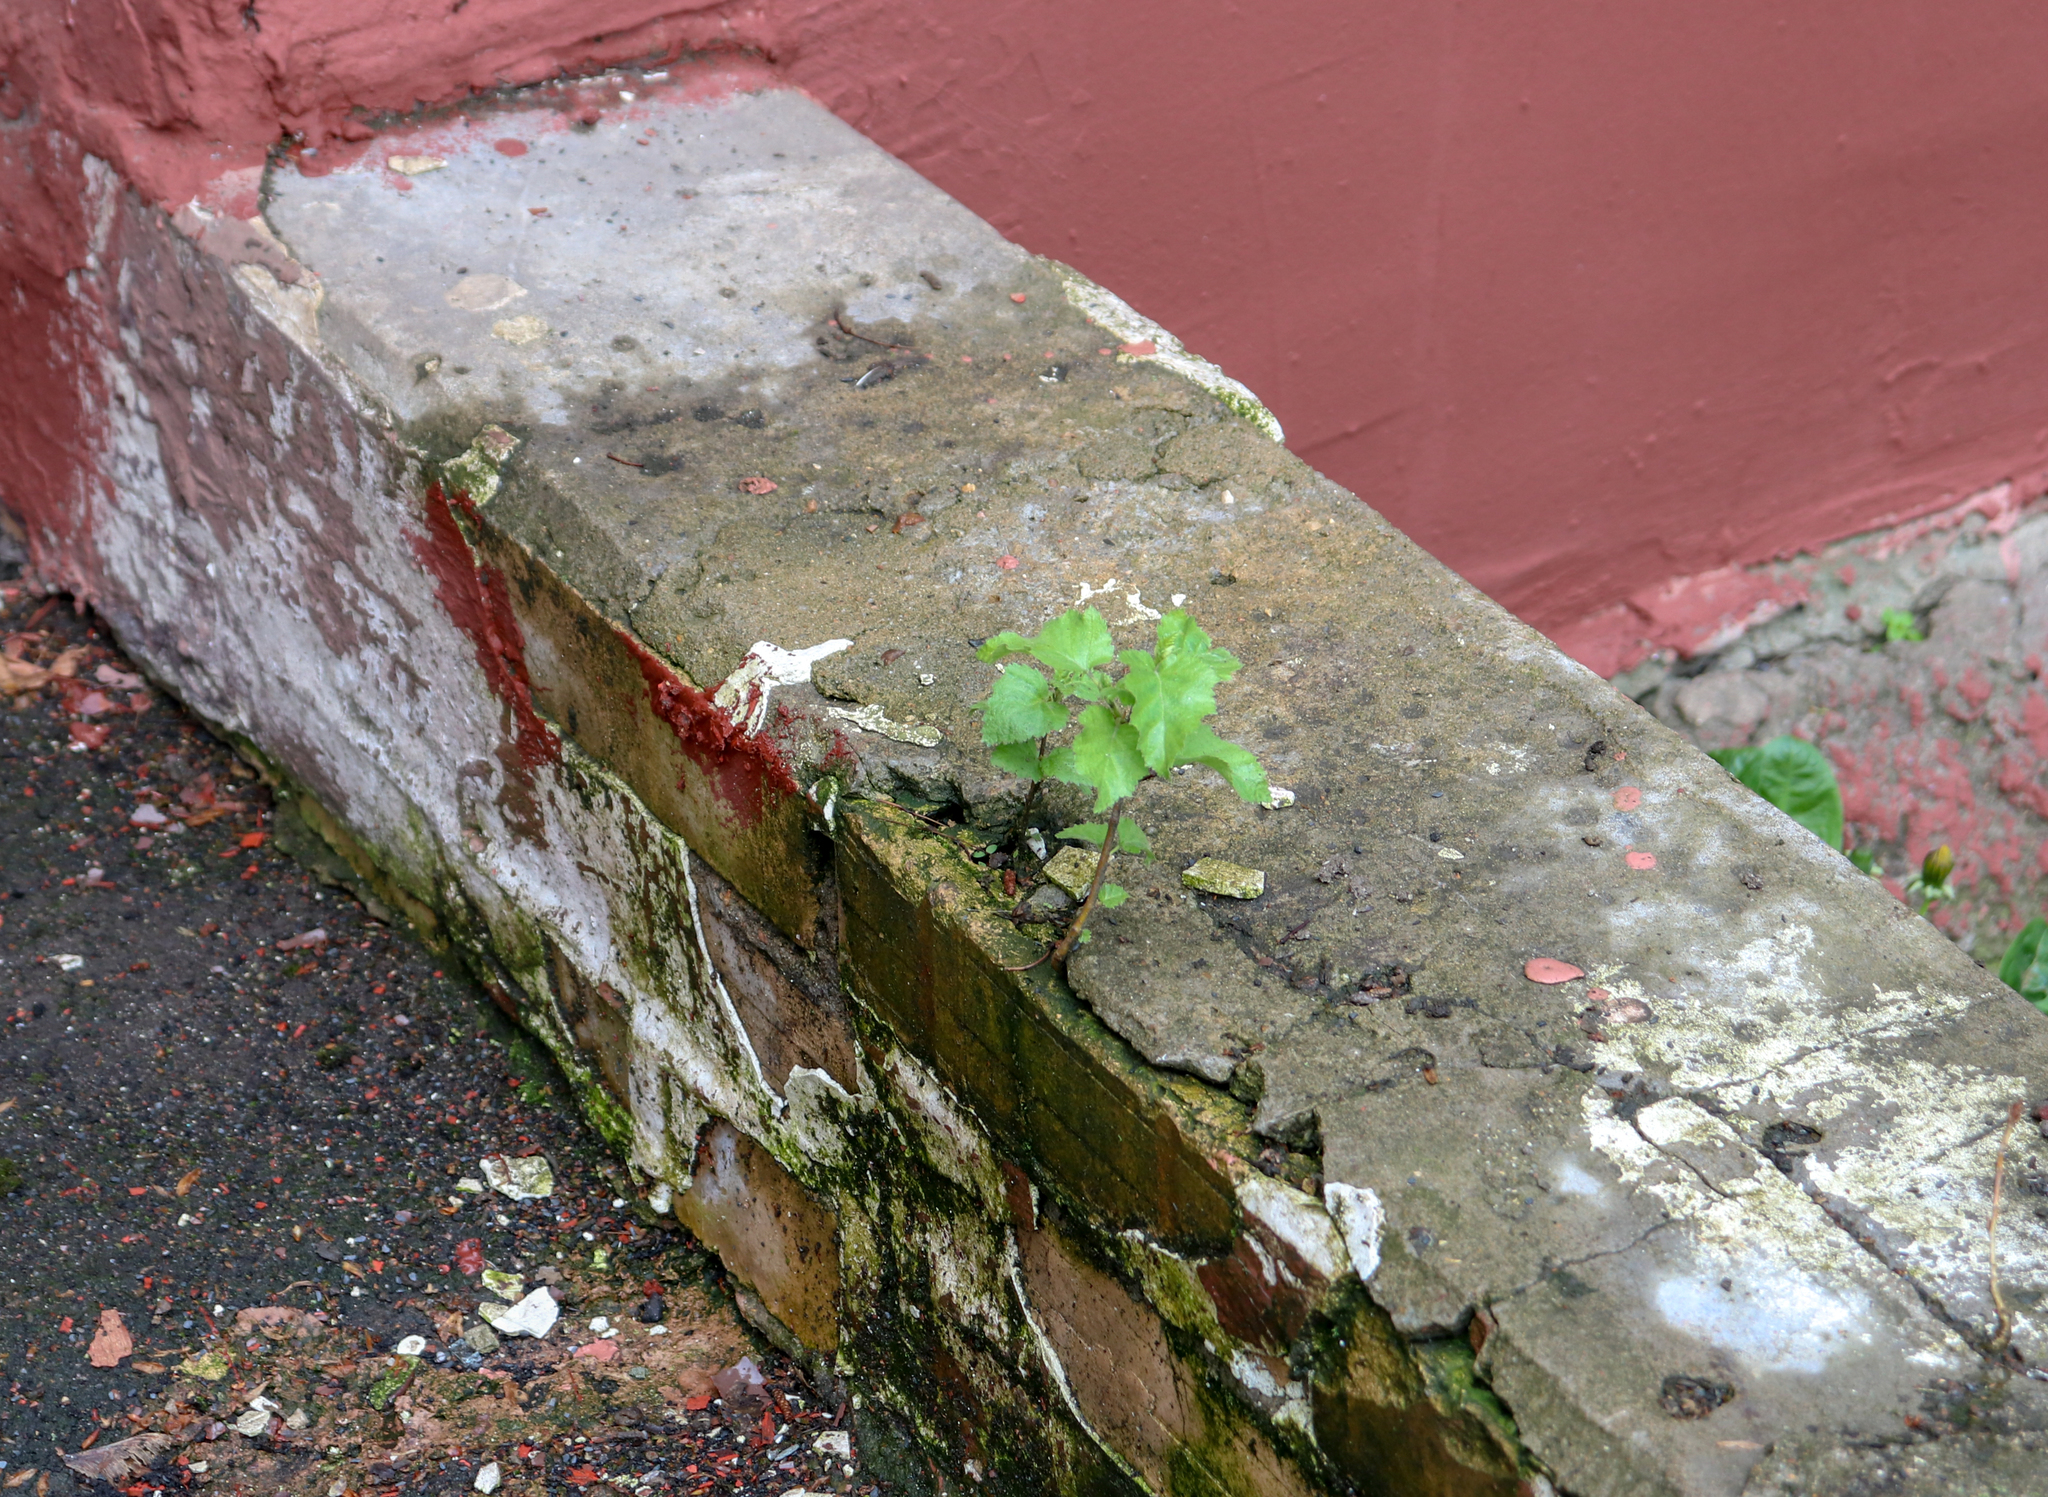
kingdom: Plantae
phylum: Tracheophyta
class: Magnoliopsida
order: Fagales
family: Betulaceae
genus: Betula
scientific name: Betula pubescens
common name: Downy birch
